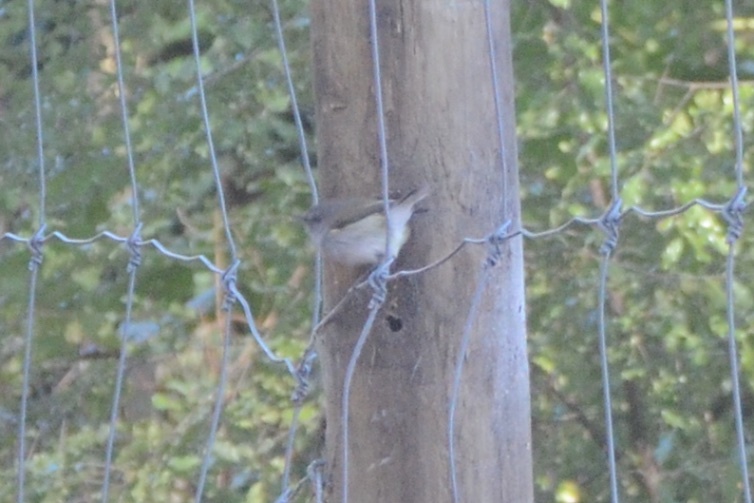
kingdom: Animalia
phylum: Chordata
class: Aves
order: Passeriformes
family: Acanthizidae
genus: Gerygone
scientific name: Gerygone igata
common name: Grey gerygone
